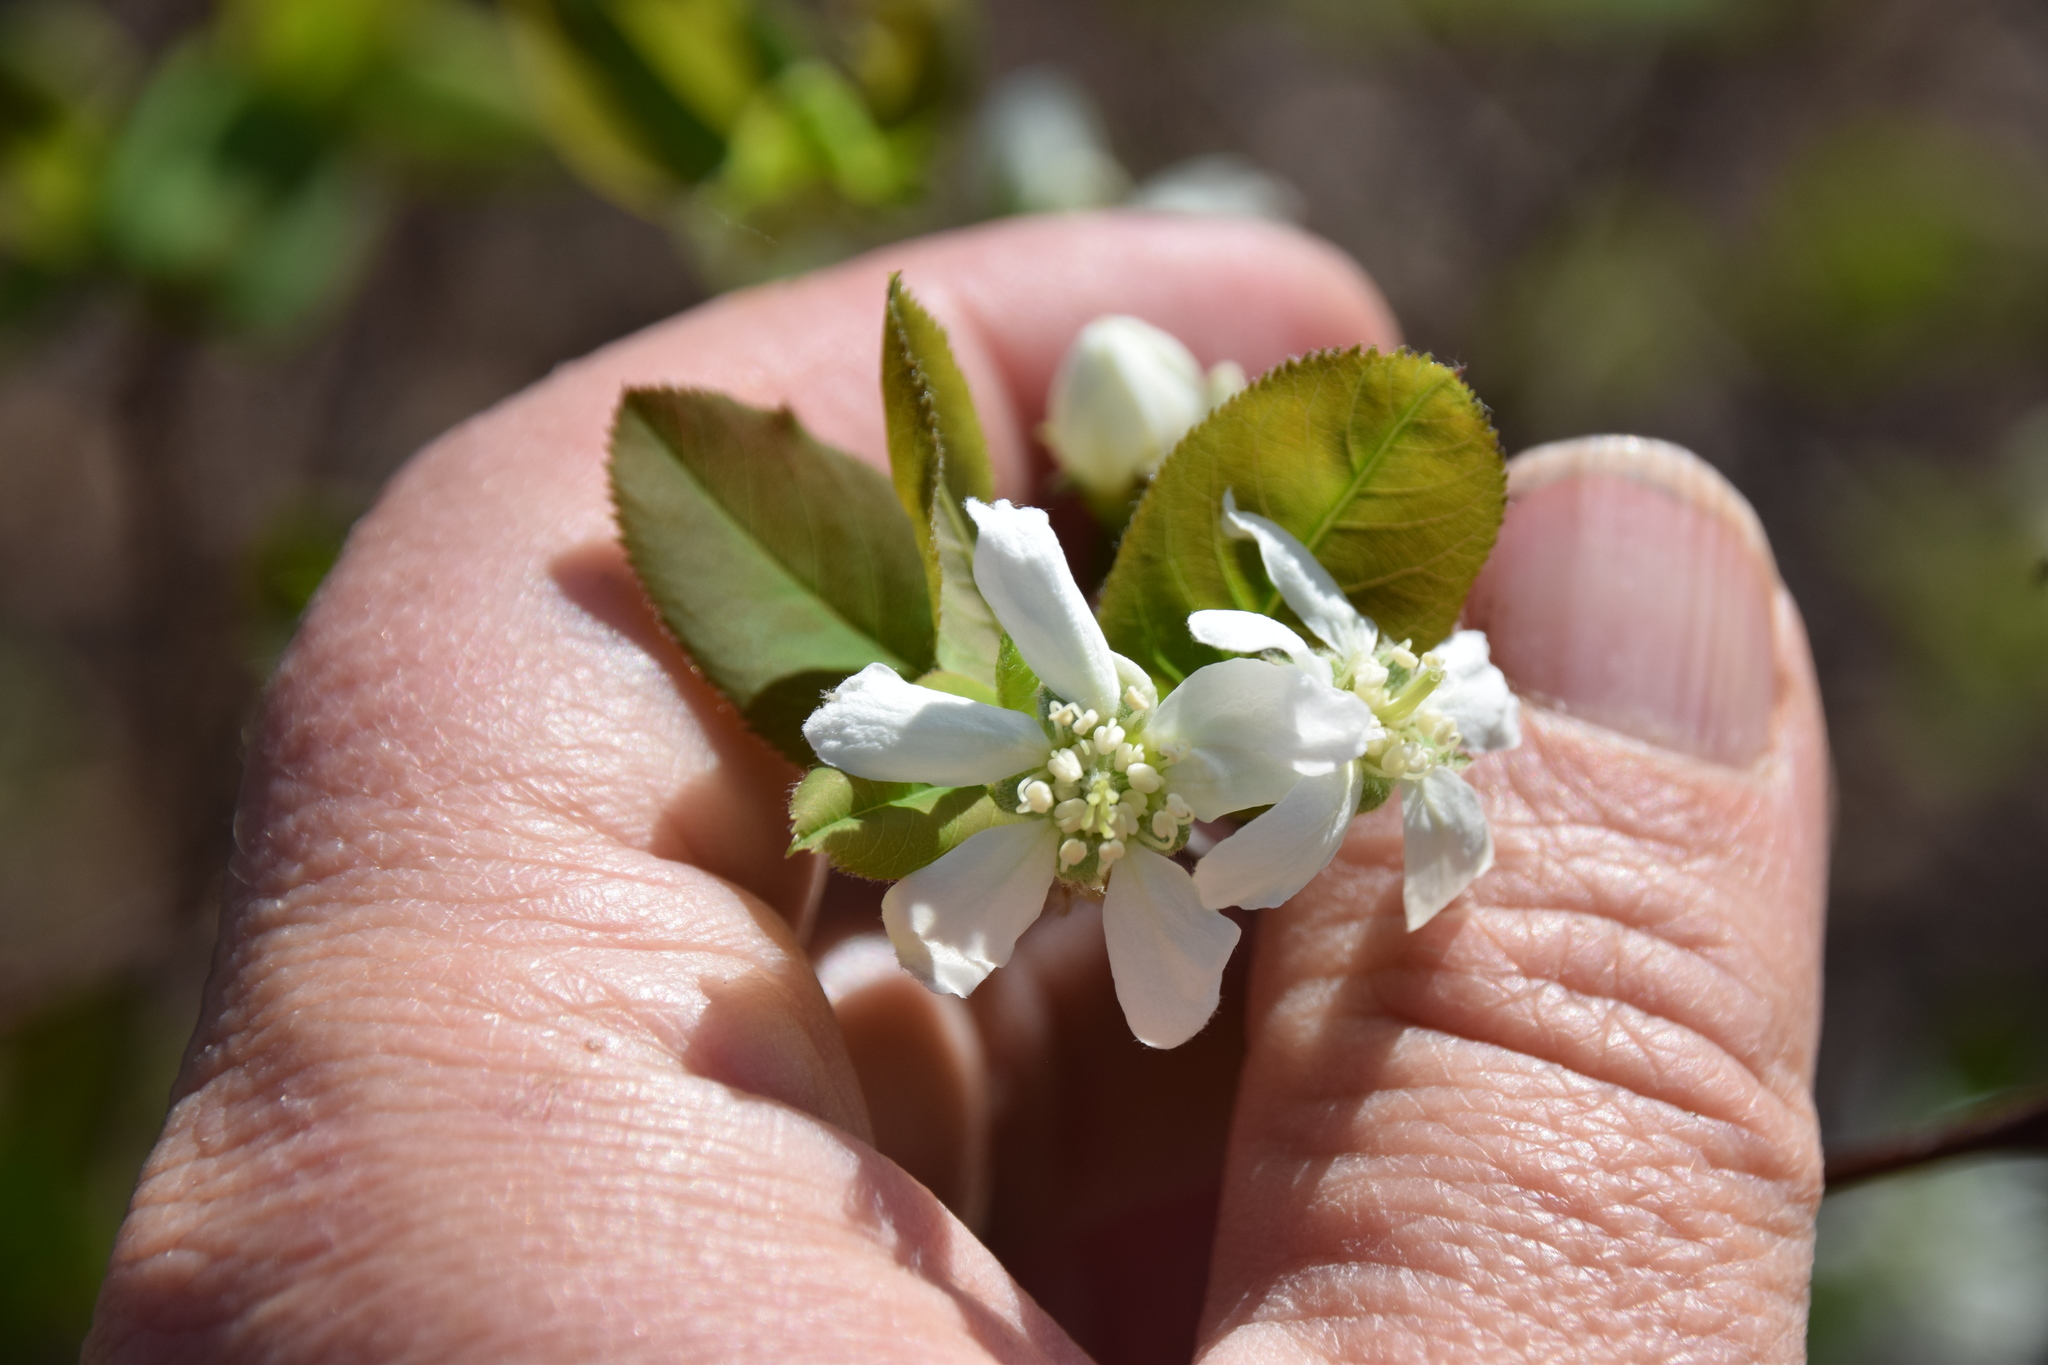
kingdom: Plantae
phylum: Tracheophyta
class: Magnoliopsida
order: Rosales
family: Rosaceae
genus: Amelanchier
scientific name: Amelanchier bartramiana
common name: Mountain serviceberry
